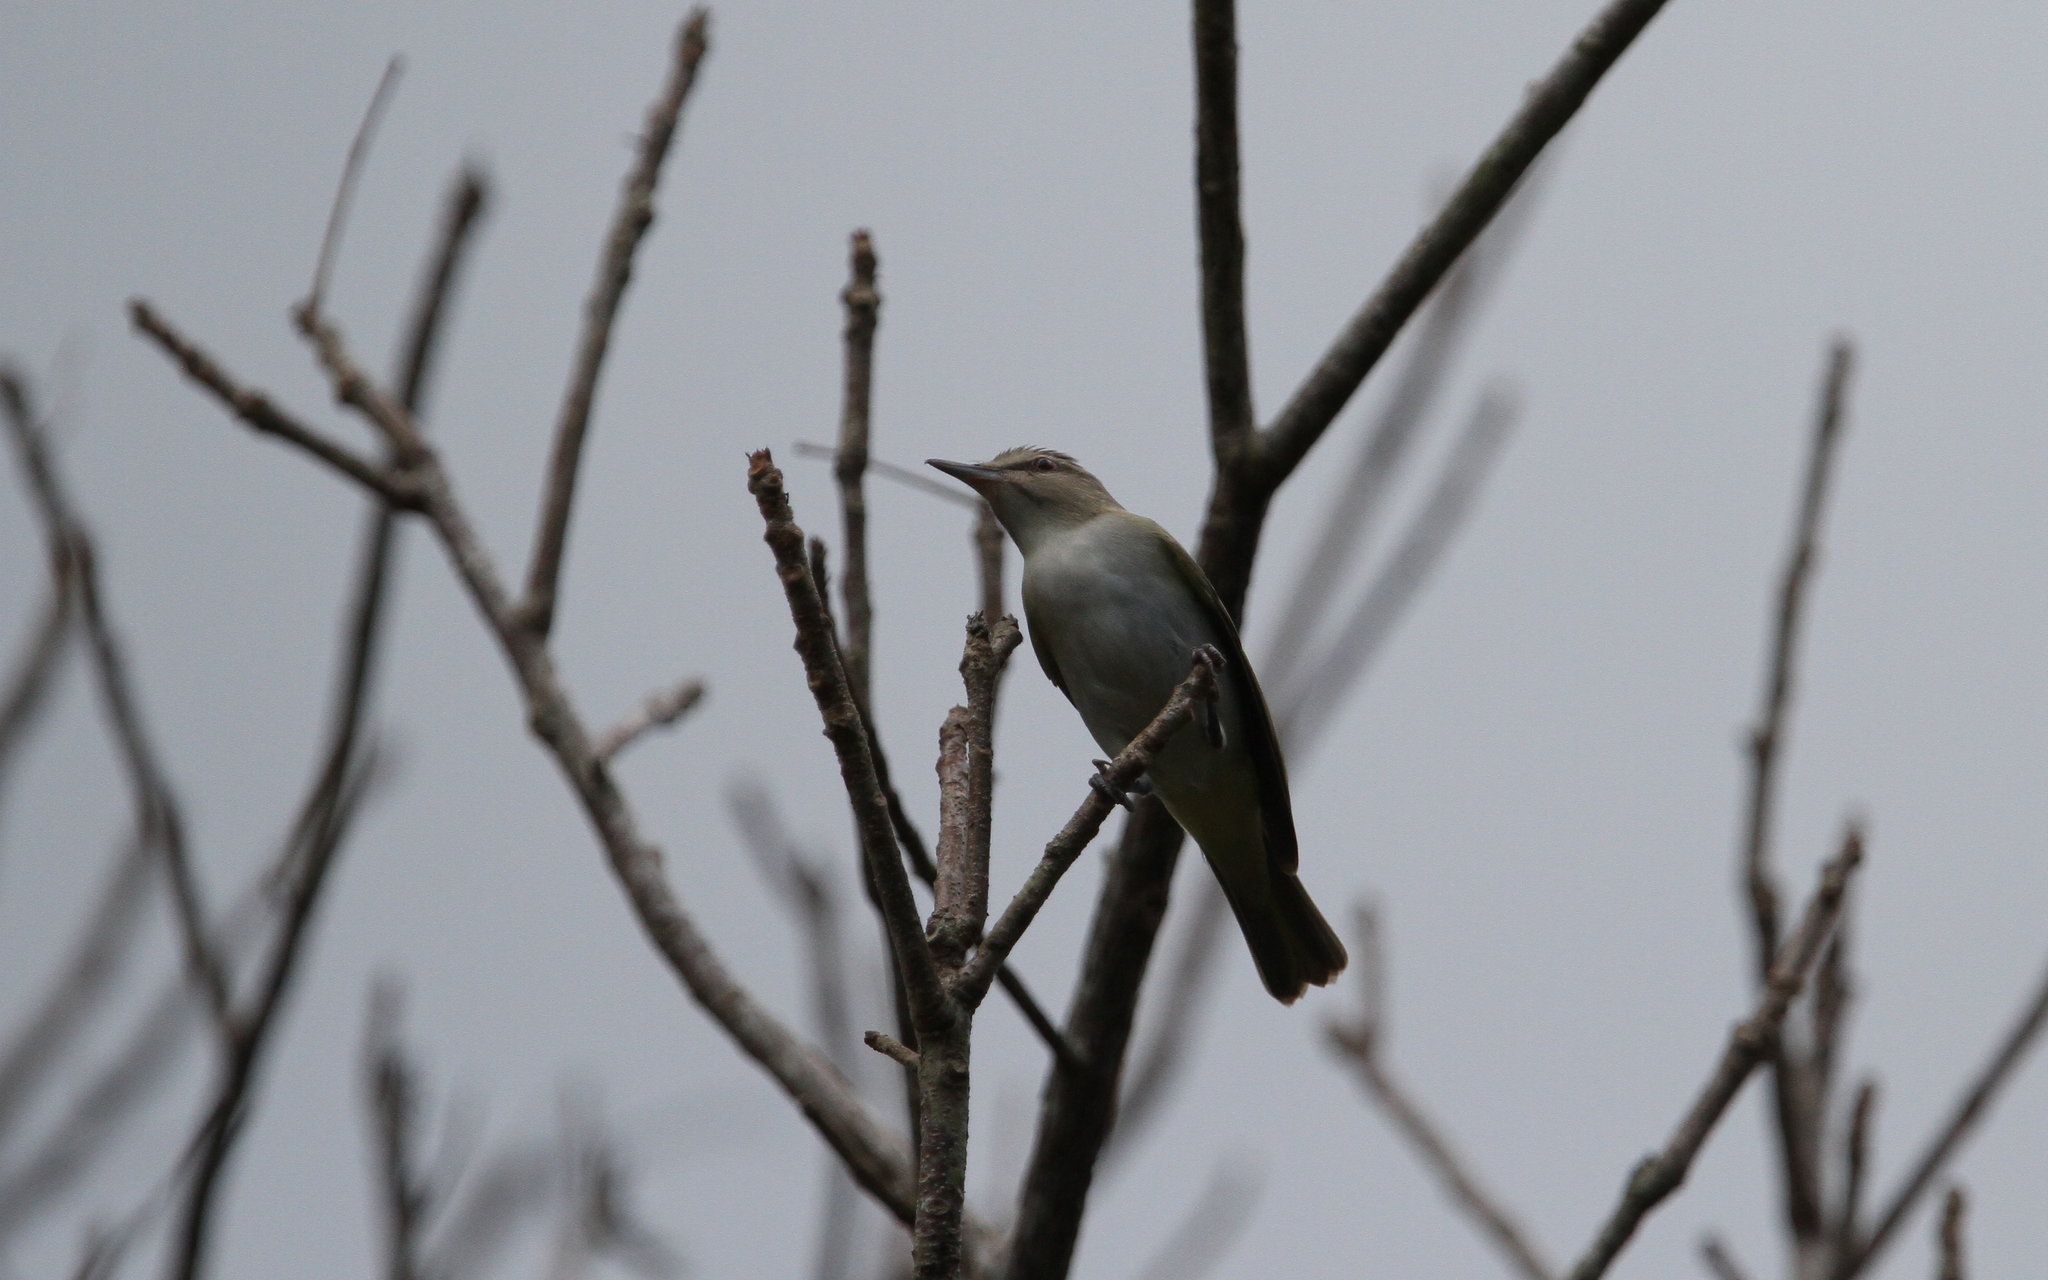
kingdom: Animalia
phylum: Chordata
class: Aves
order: Passeriformes
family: Vireonidae
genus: Vireo
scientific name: Vireo altiloquus
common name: Black-whiskered vireo
